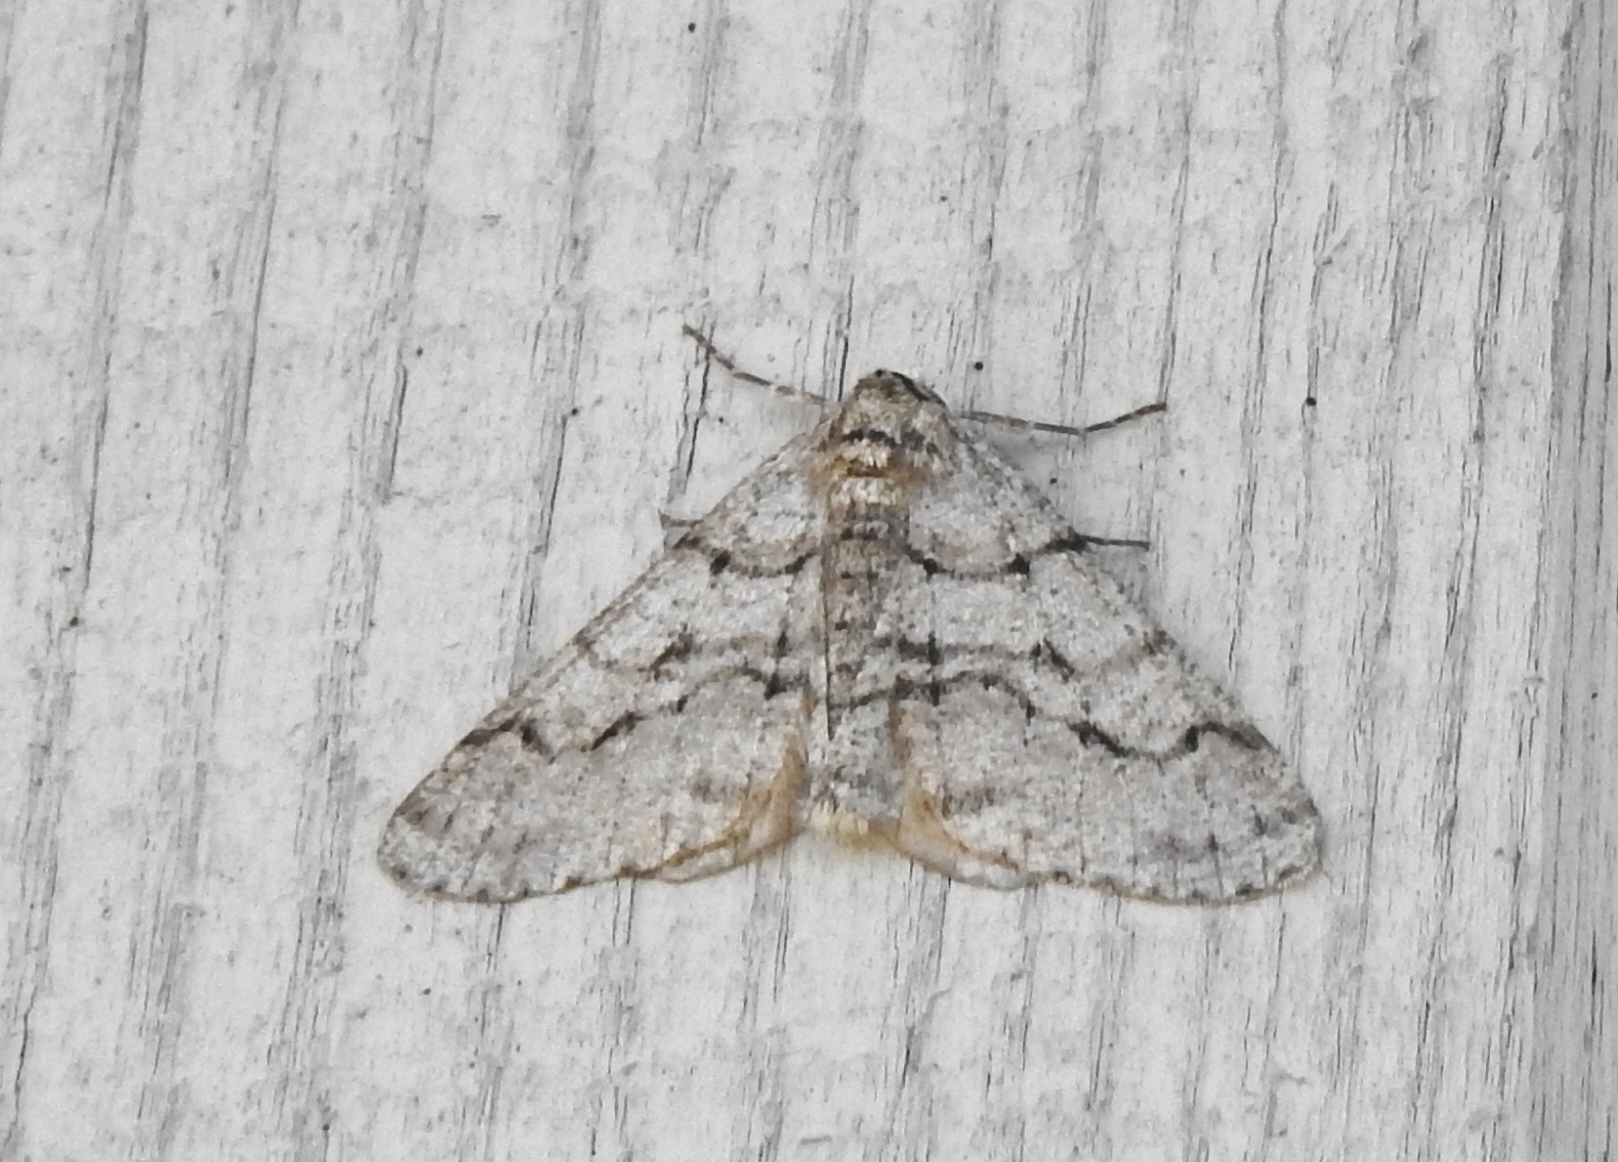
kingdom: Animalia
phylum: Arthropoda
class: Insecta
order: Lepidoptera
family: Geometridae
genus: Phigalia
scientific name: Phigalia titea
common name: Spiny looper
